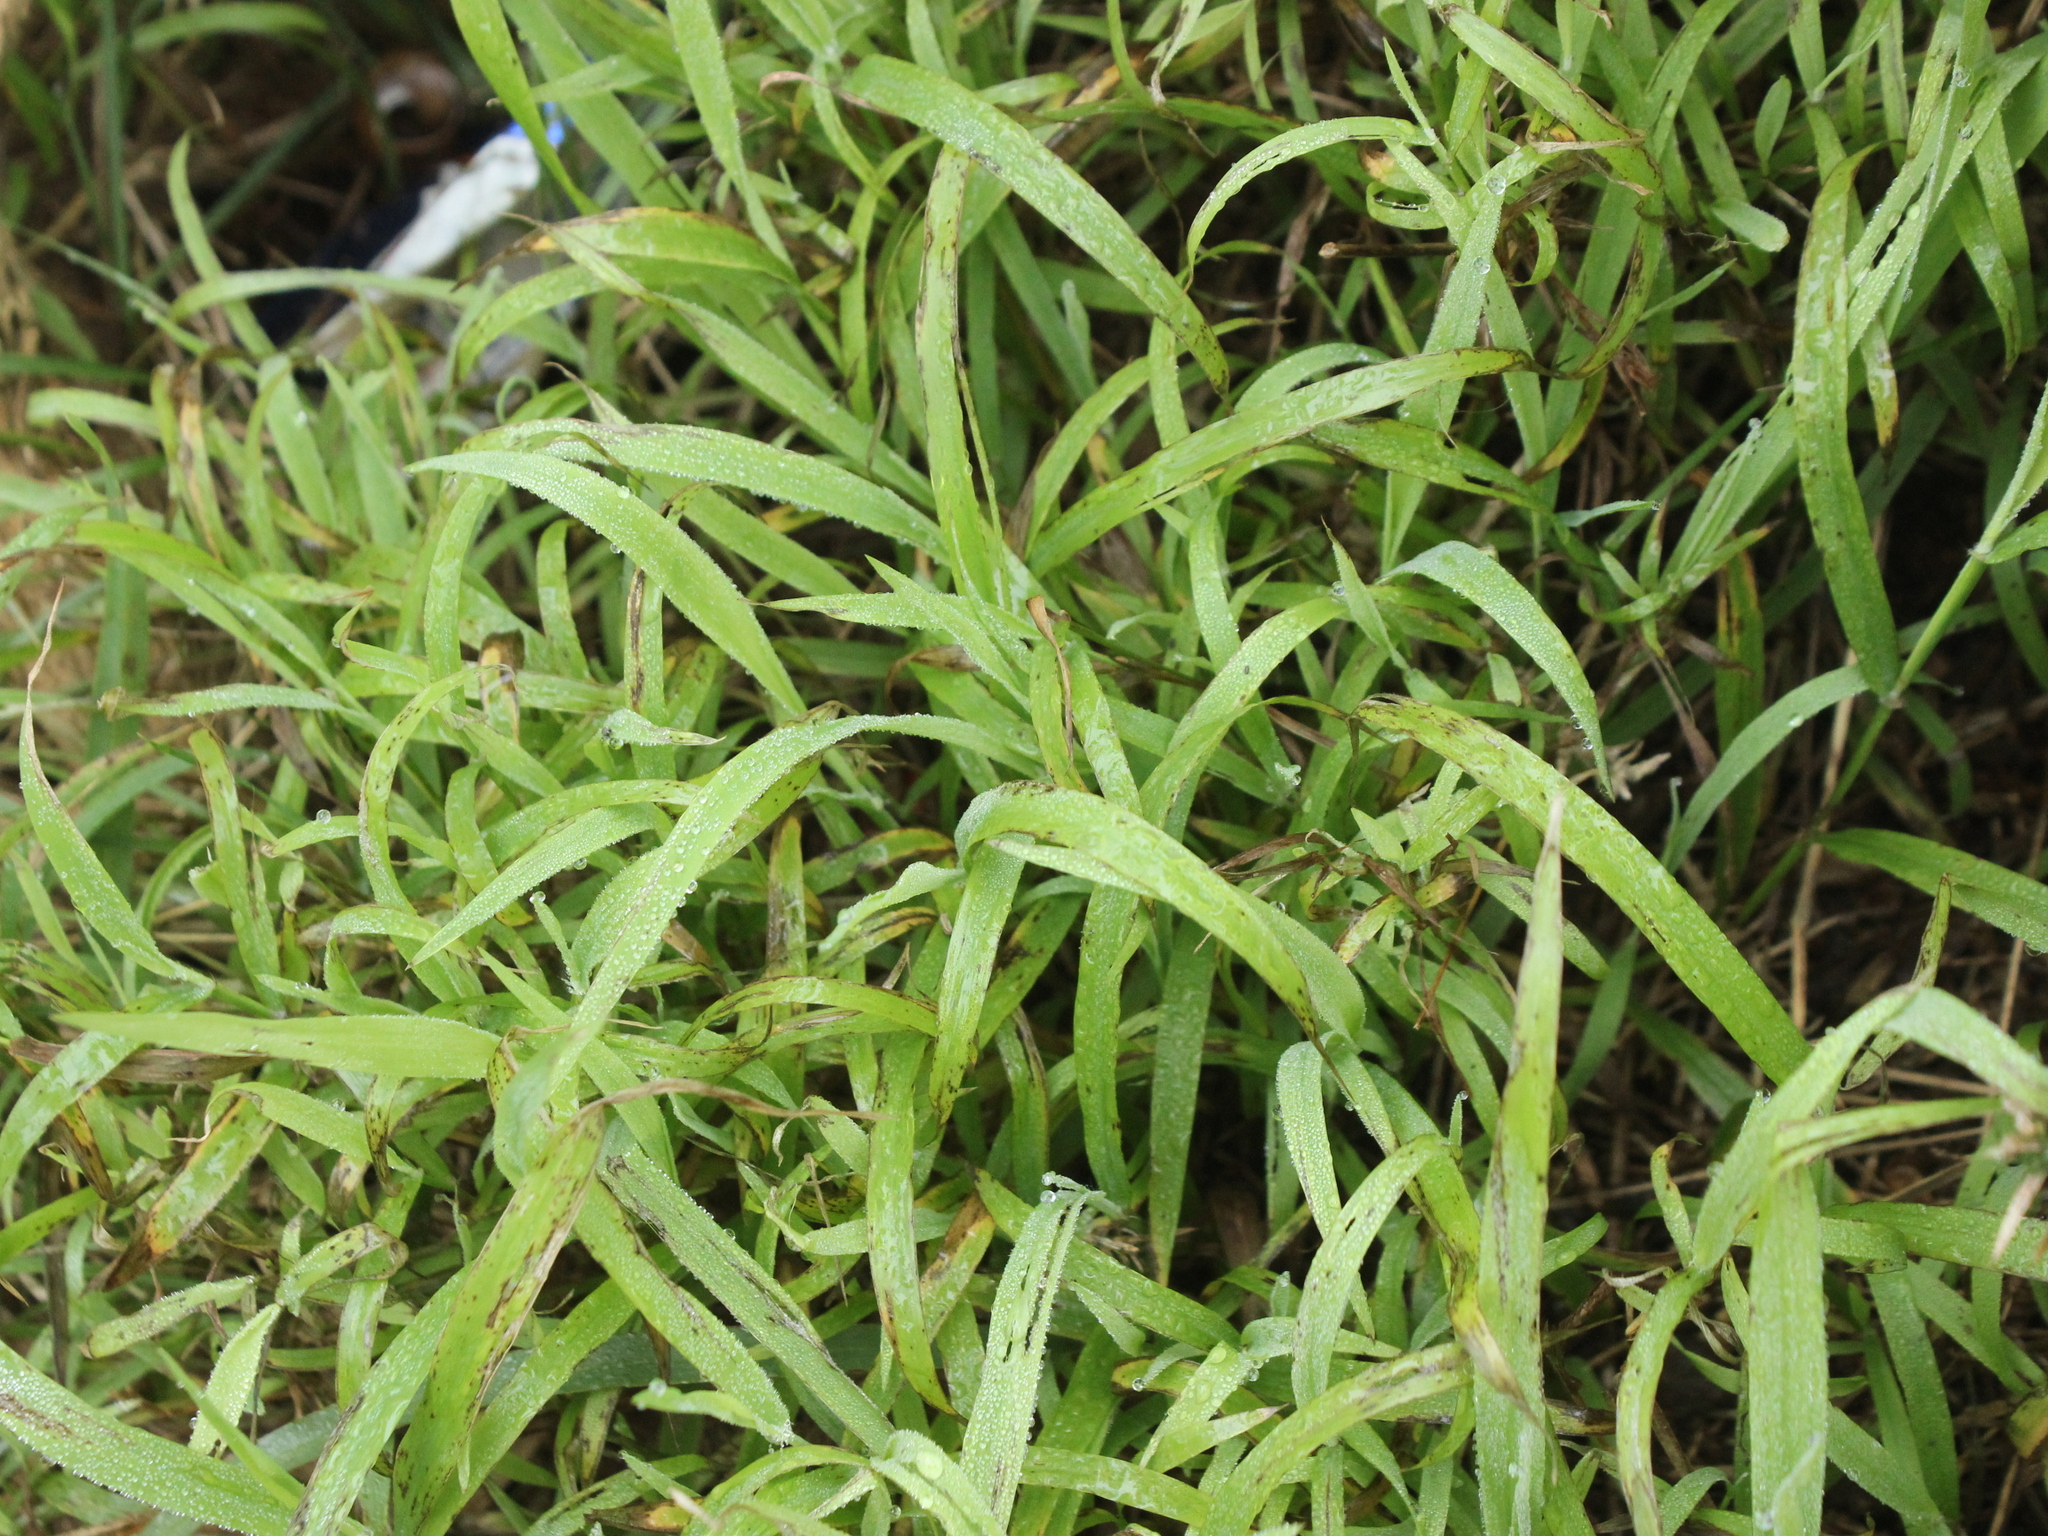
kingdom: Plantae
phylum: Tracheophyta
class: Liliopsida
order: Poales
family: Poaceae
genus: Ehrharta
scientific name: Ehrharta erecta
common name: Panic veldtgrass
